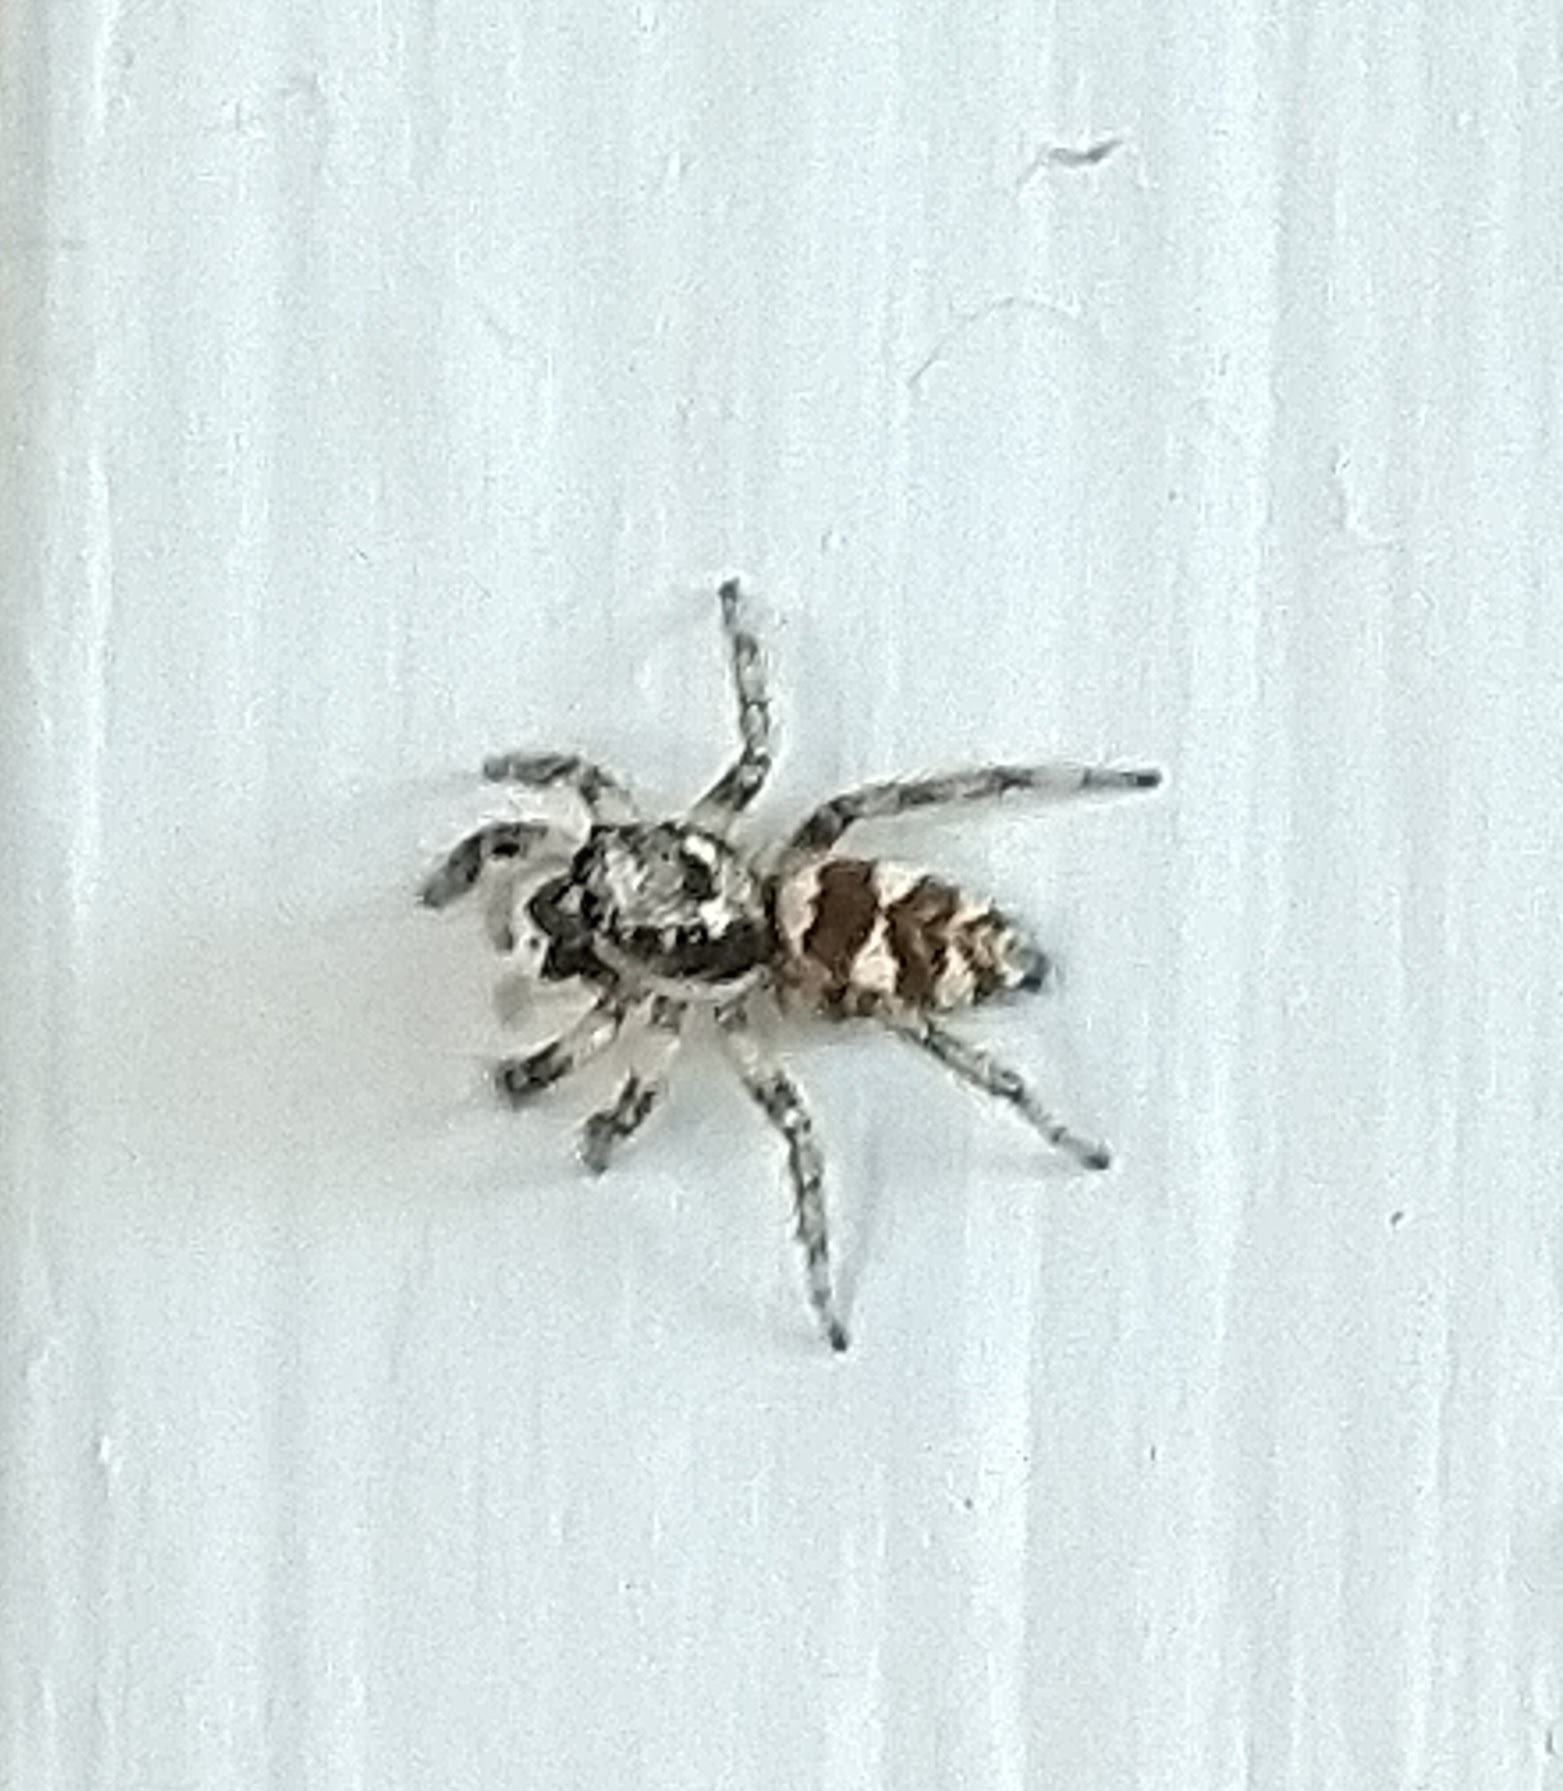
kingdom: Animalia
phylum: Arthropoda
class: Arachnida
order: Araneae
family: Salticidae
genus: Salticus
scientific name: Salticus scenicus
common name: Zebra jumper
